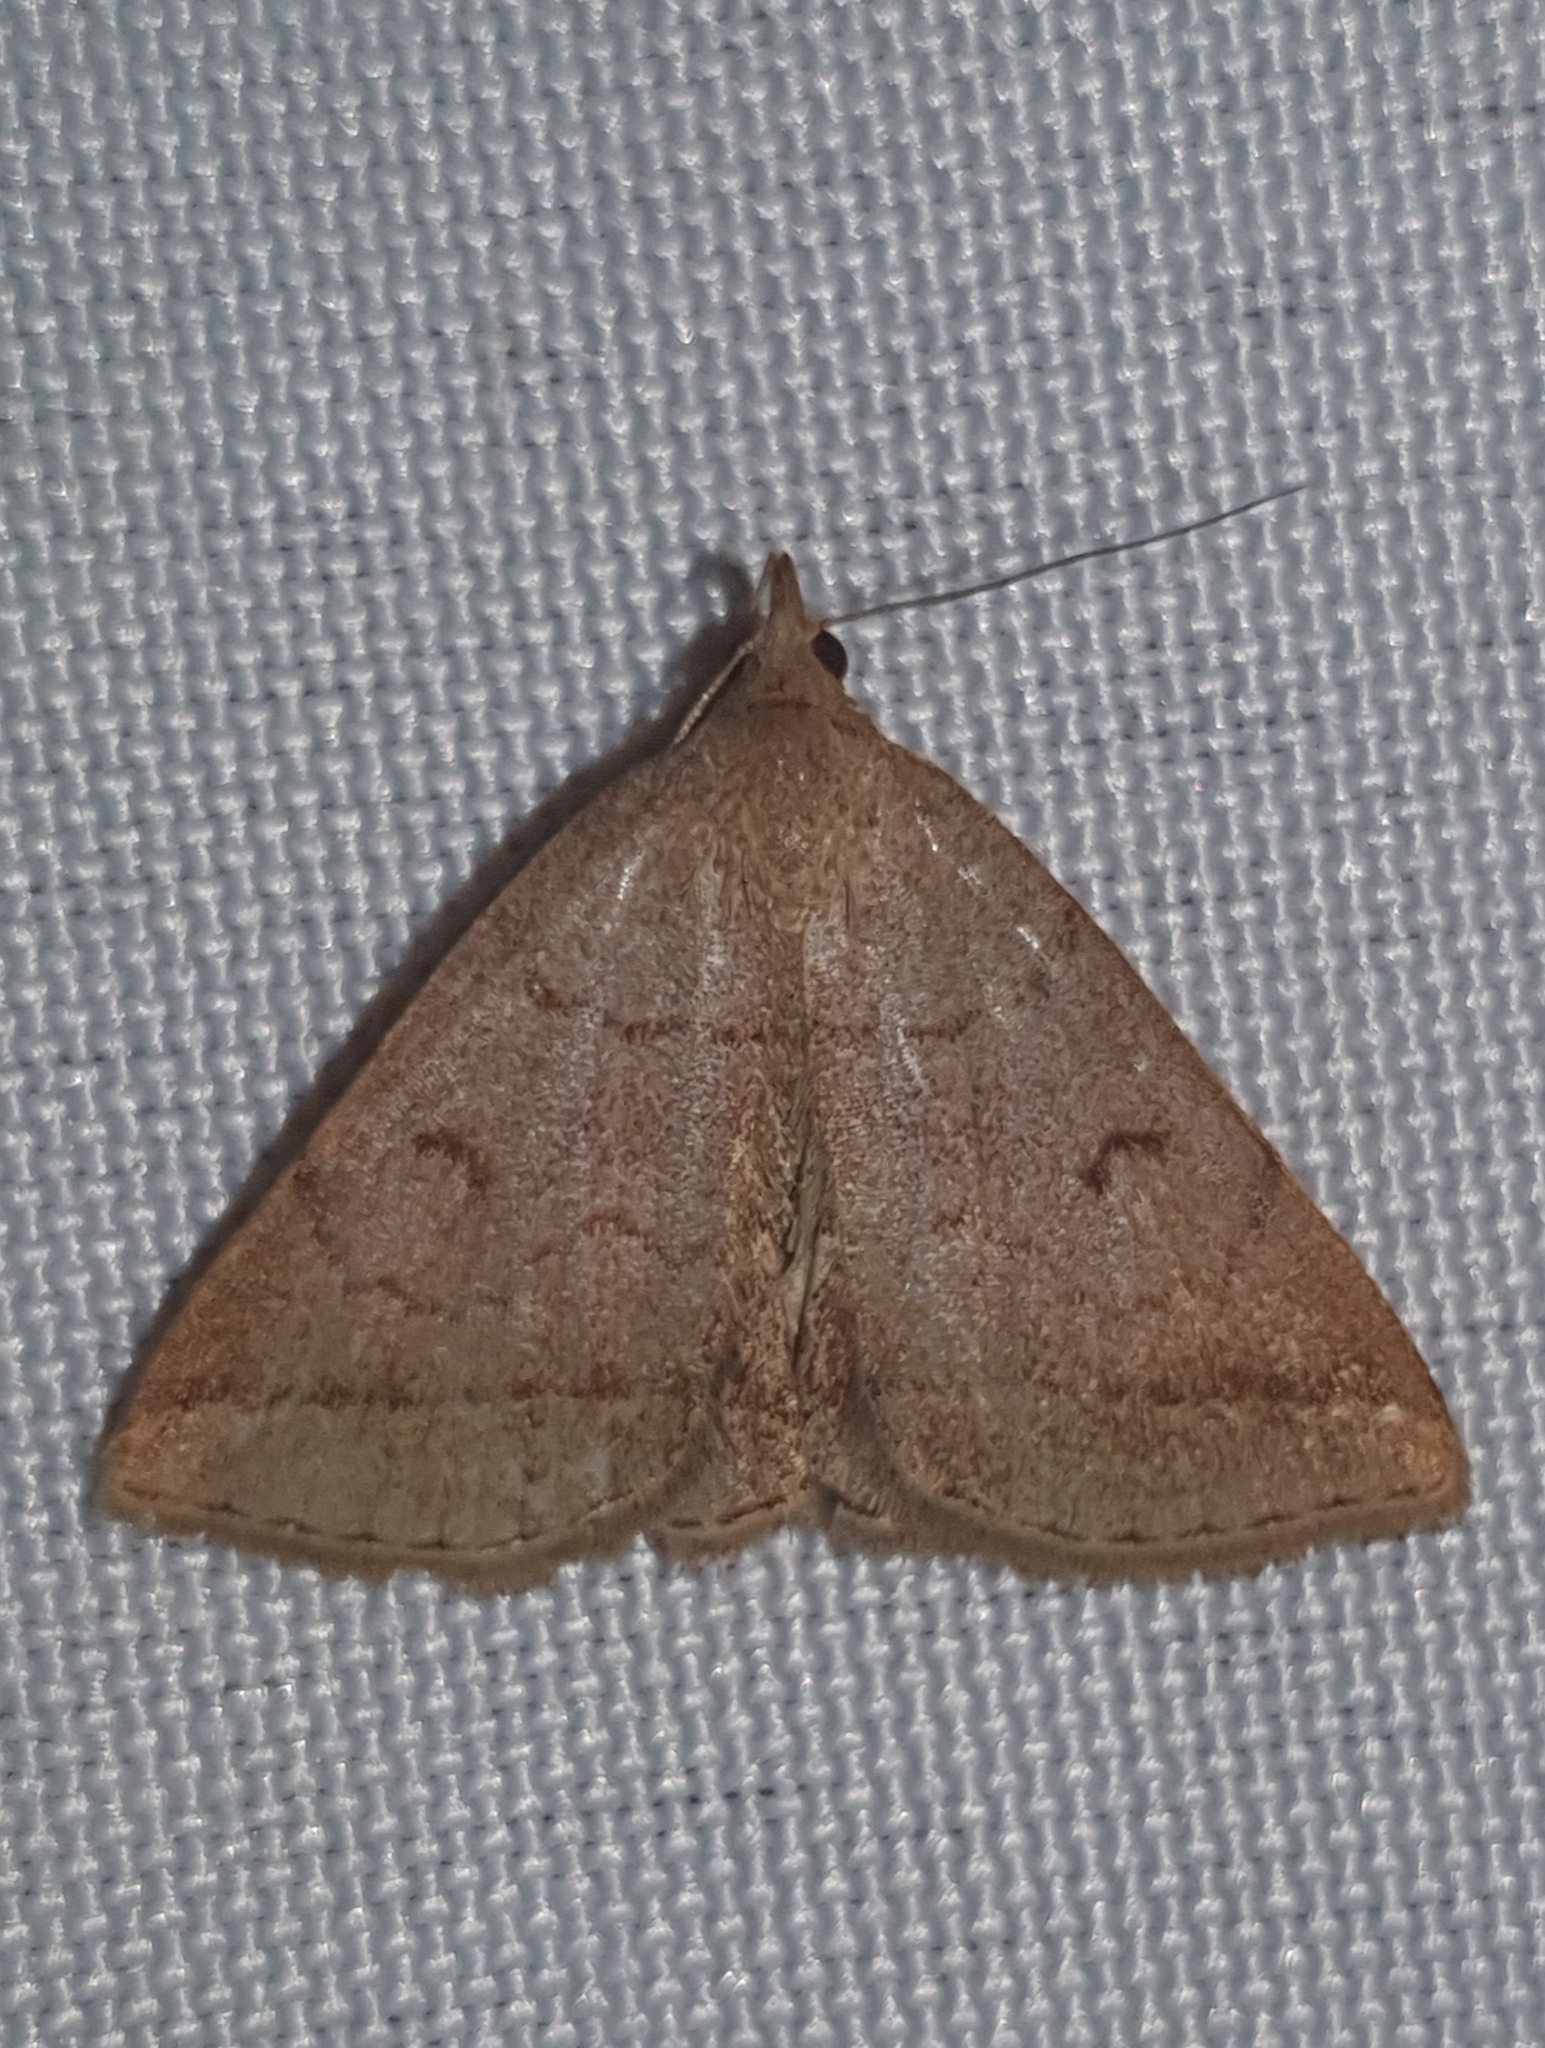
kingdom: Animalia
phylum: Arthropoda
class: Insecta
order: Lepidoptera
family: Erebidae
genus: Zanclognatha
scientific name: Zanclognatha lunalis
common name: Jubilee fan-foot
